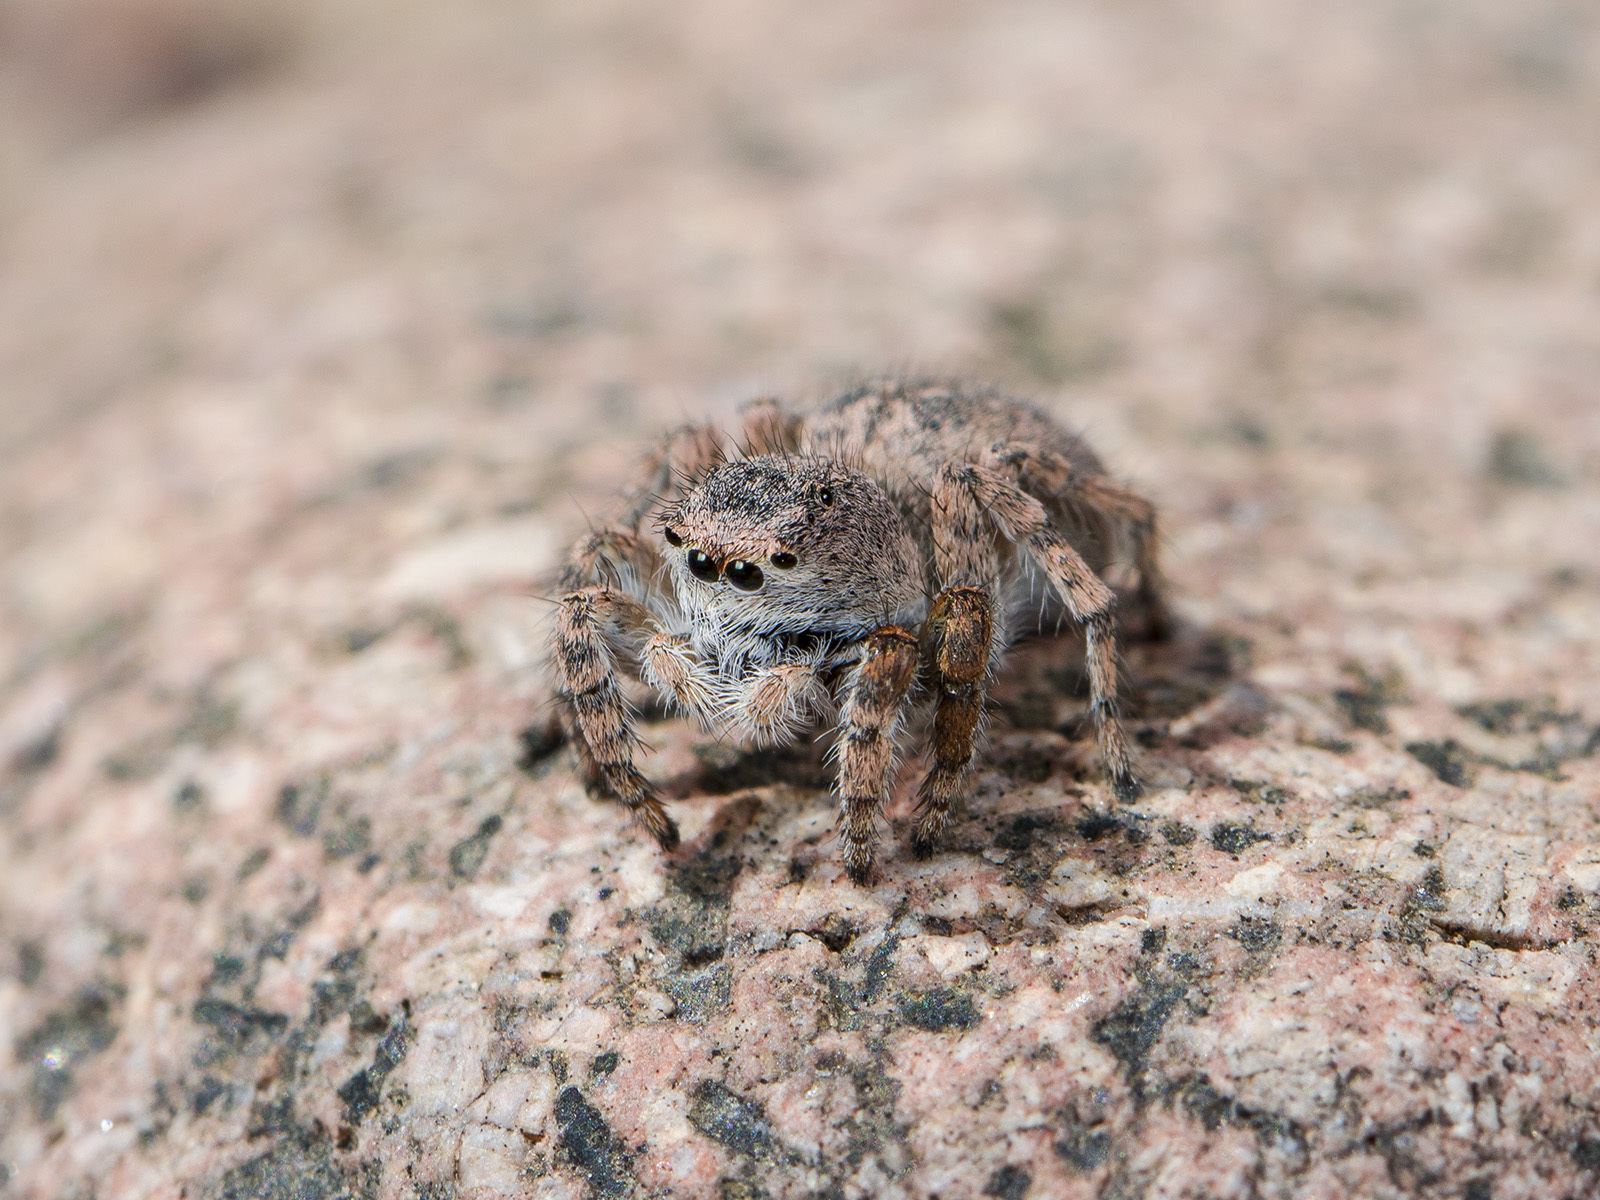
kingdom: Animalia
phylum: Arthropoda
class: Arachnida
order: Araneae
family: Salticidae
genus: Aelurillus
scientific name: Aelurillus dubatolovi
